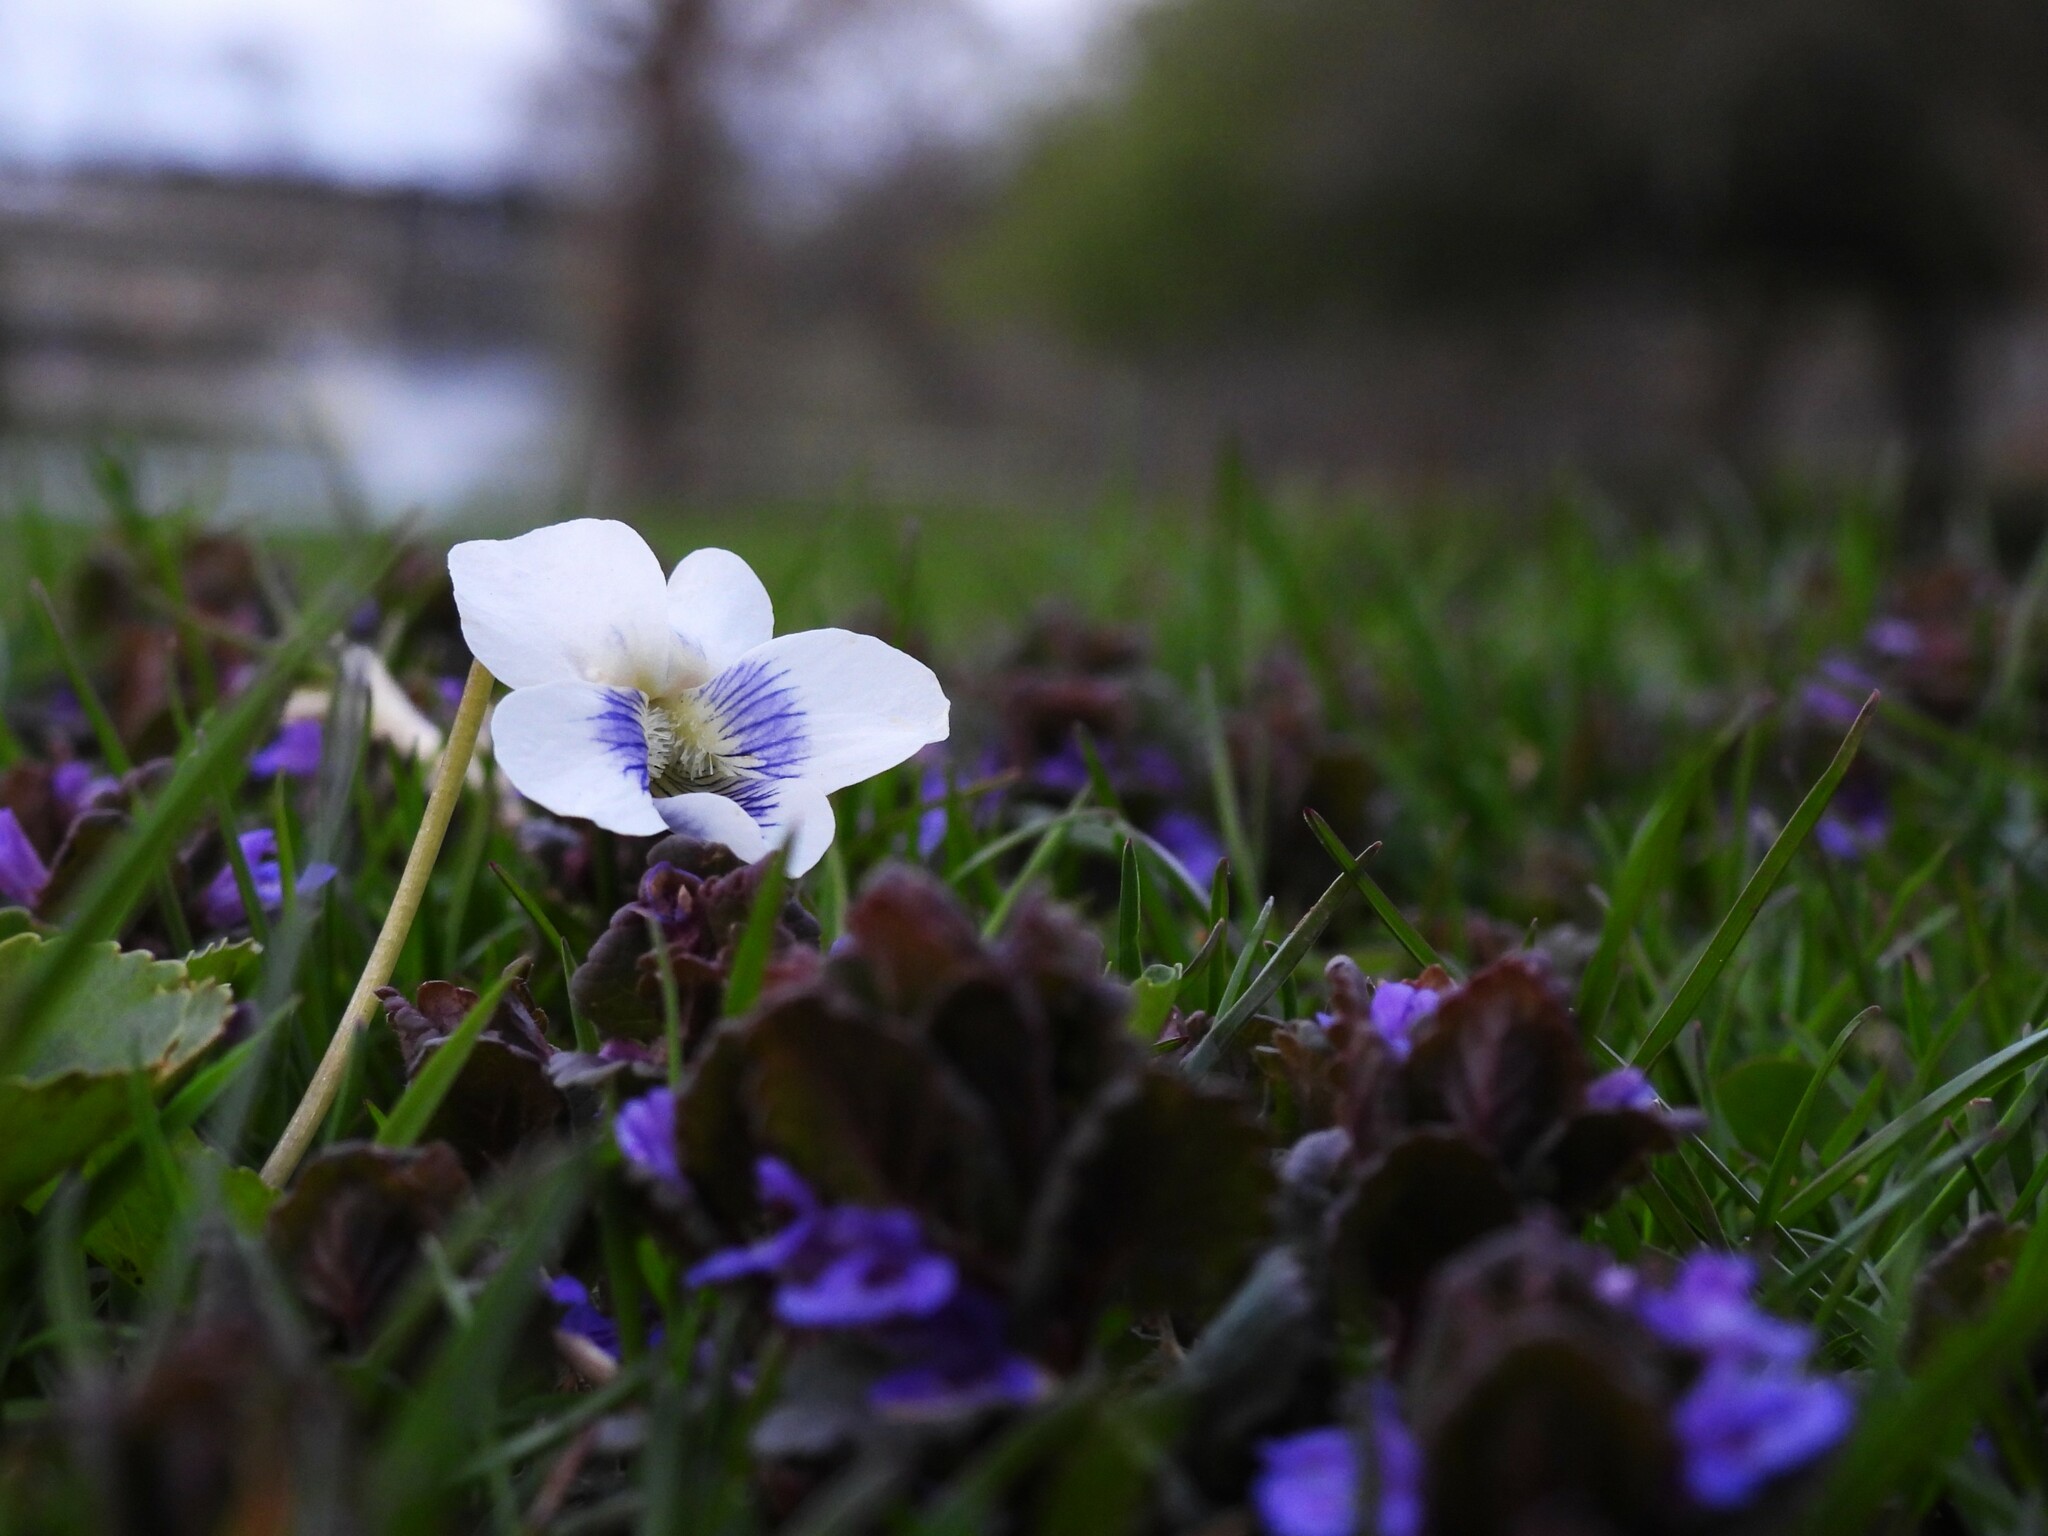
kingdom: Plantae
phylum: Tracheophyta
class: Magnoliopsida
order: Malpighiales
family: Violaceae
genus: Viola
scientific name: Viola sororia
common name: Dooryard violet
